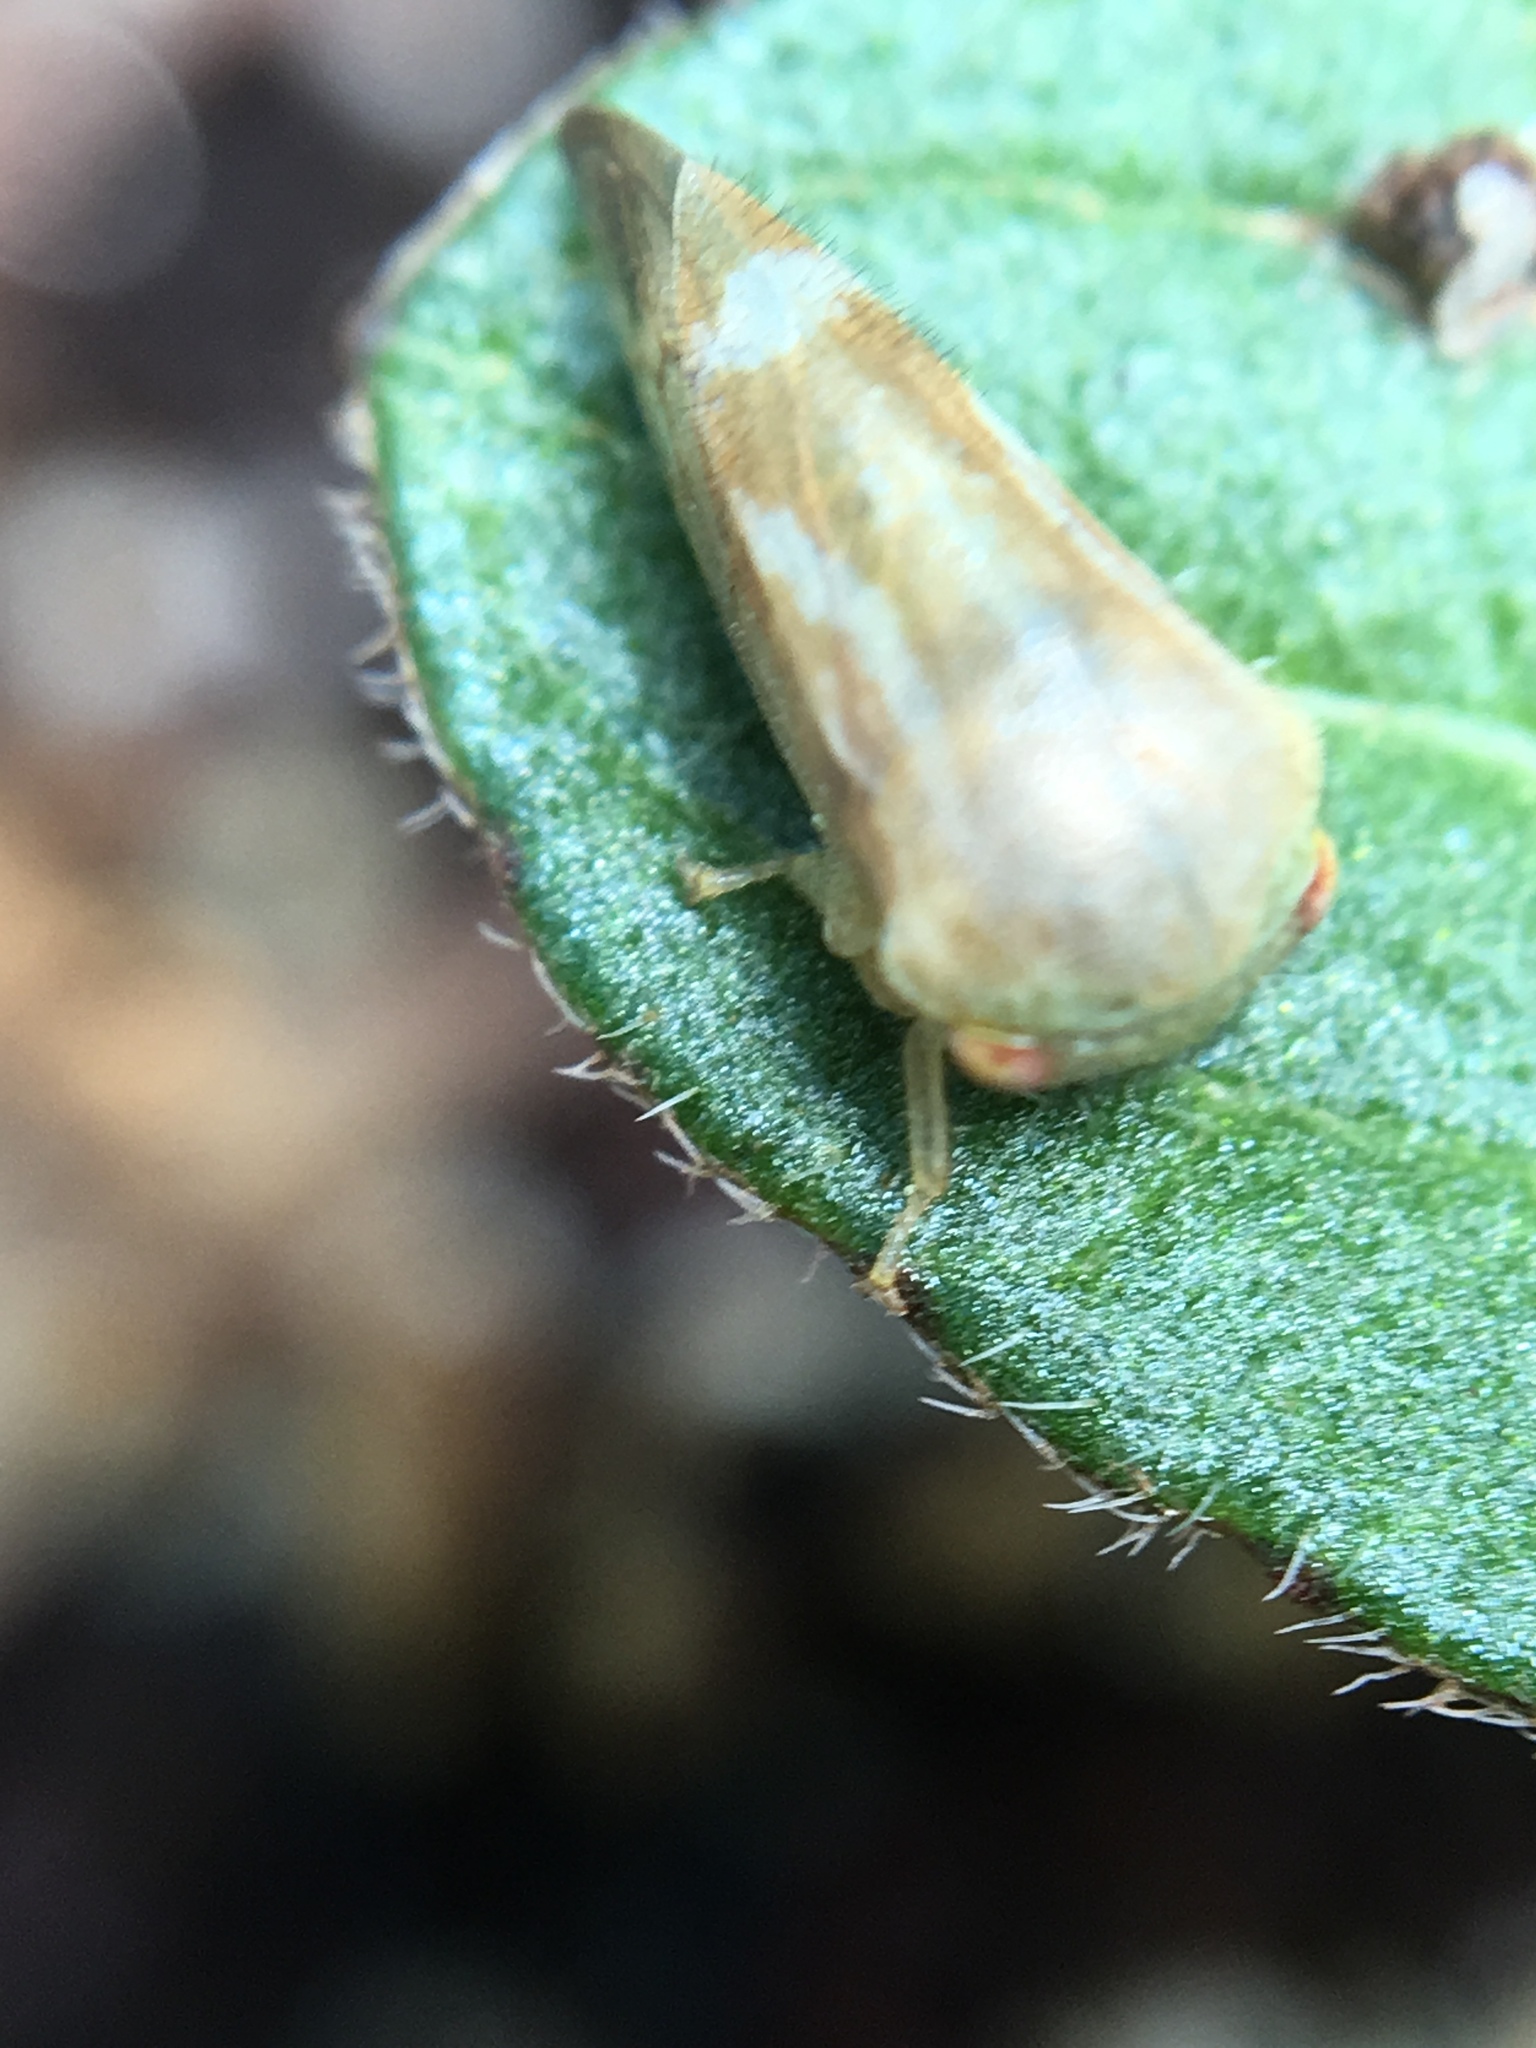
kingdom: Animalia
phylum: Arthropoda
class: Insecta
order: Hemiptera
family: Membracidae
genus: Ophiderma
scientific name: Ophiderma evelyna
